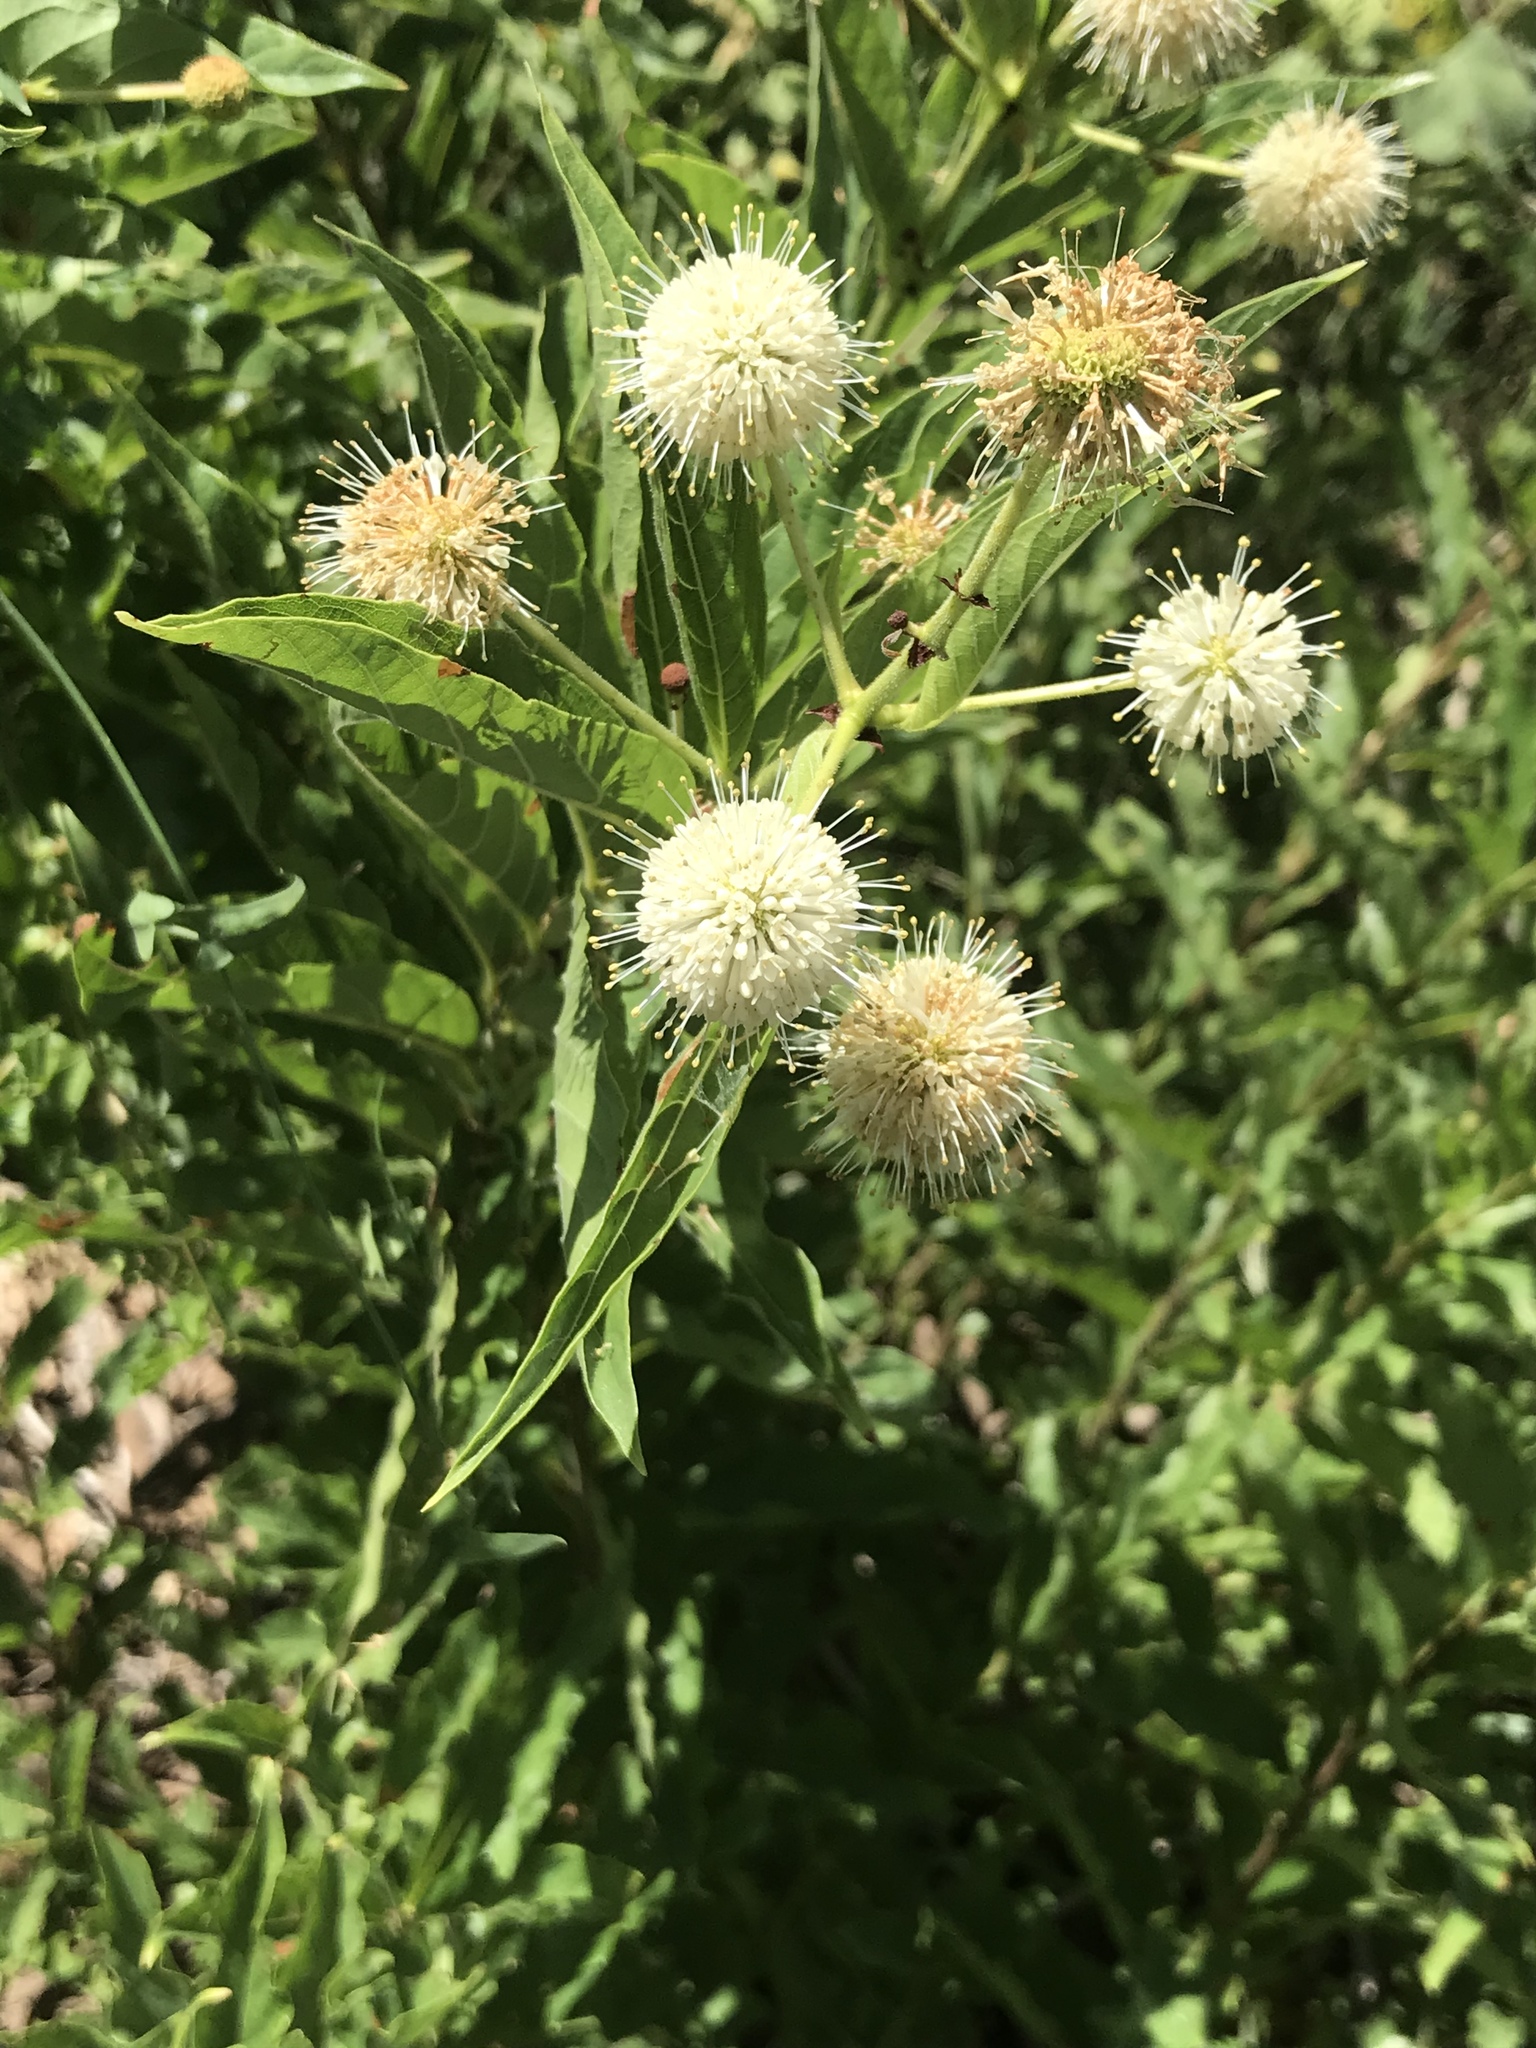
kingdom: Plantae
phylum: Tracheophyta
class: Magnoliopsida
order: Gentianales
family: Rubiaceae
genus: Cephalanthus
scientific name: Cephalanthus occidentalis
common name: Button-willow
